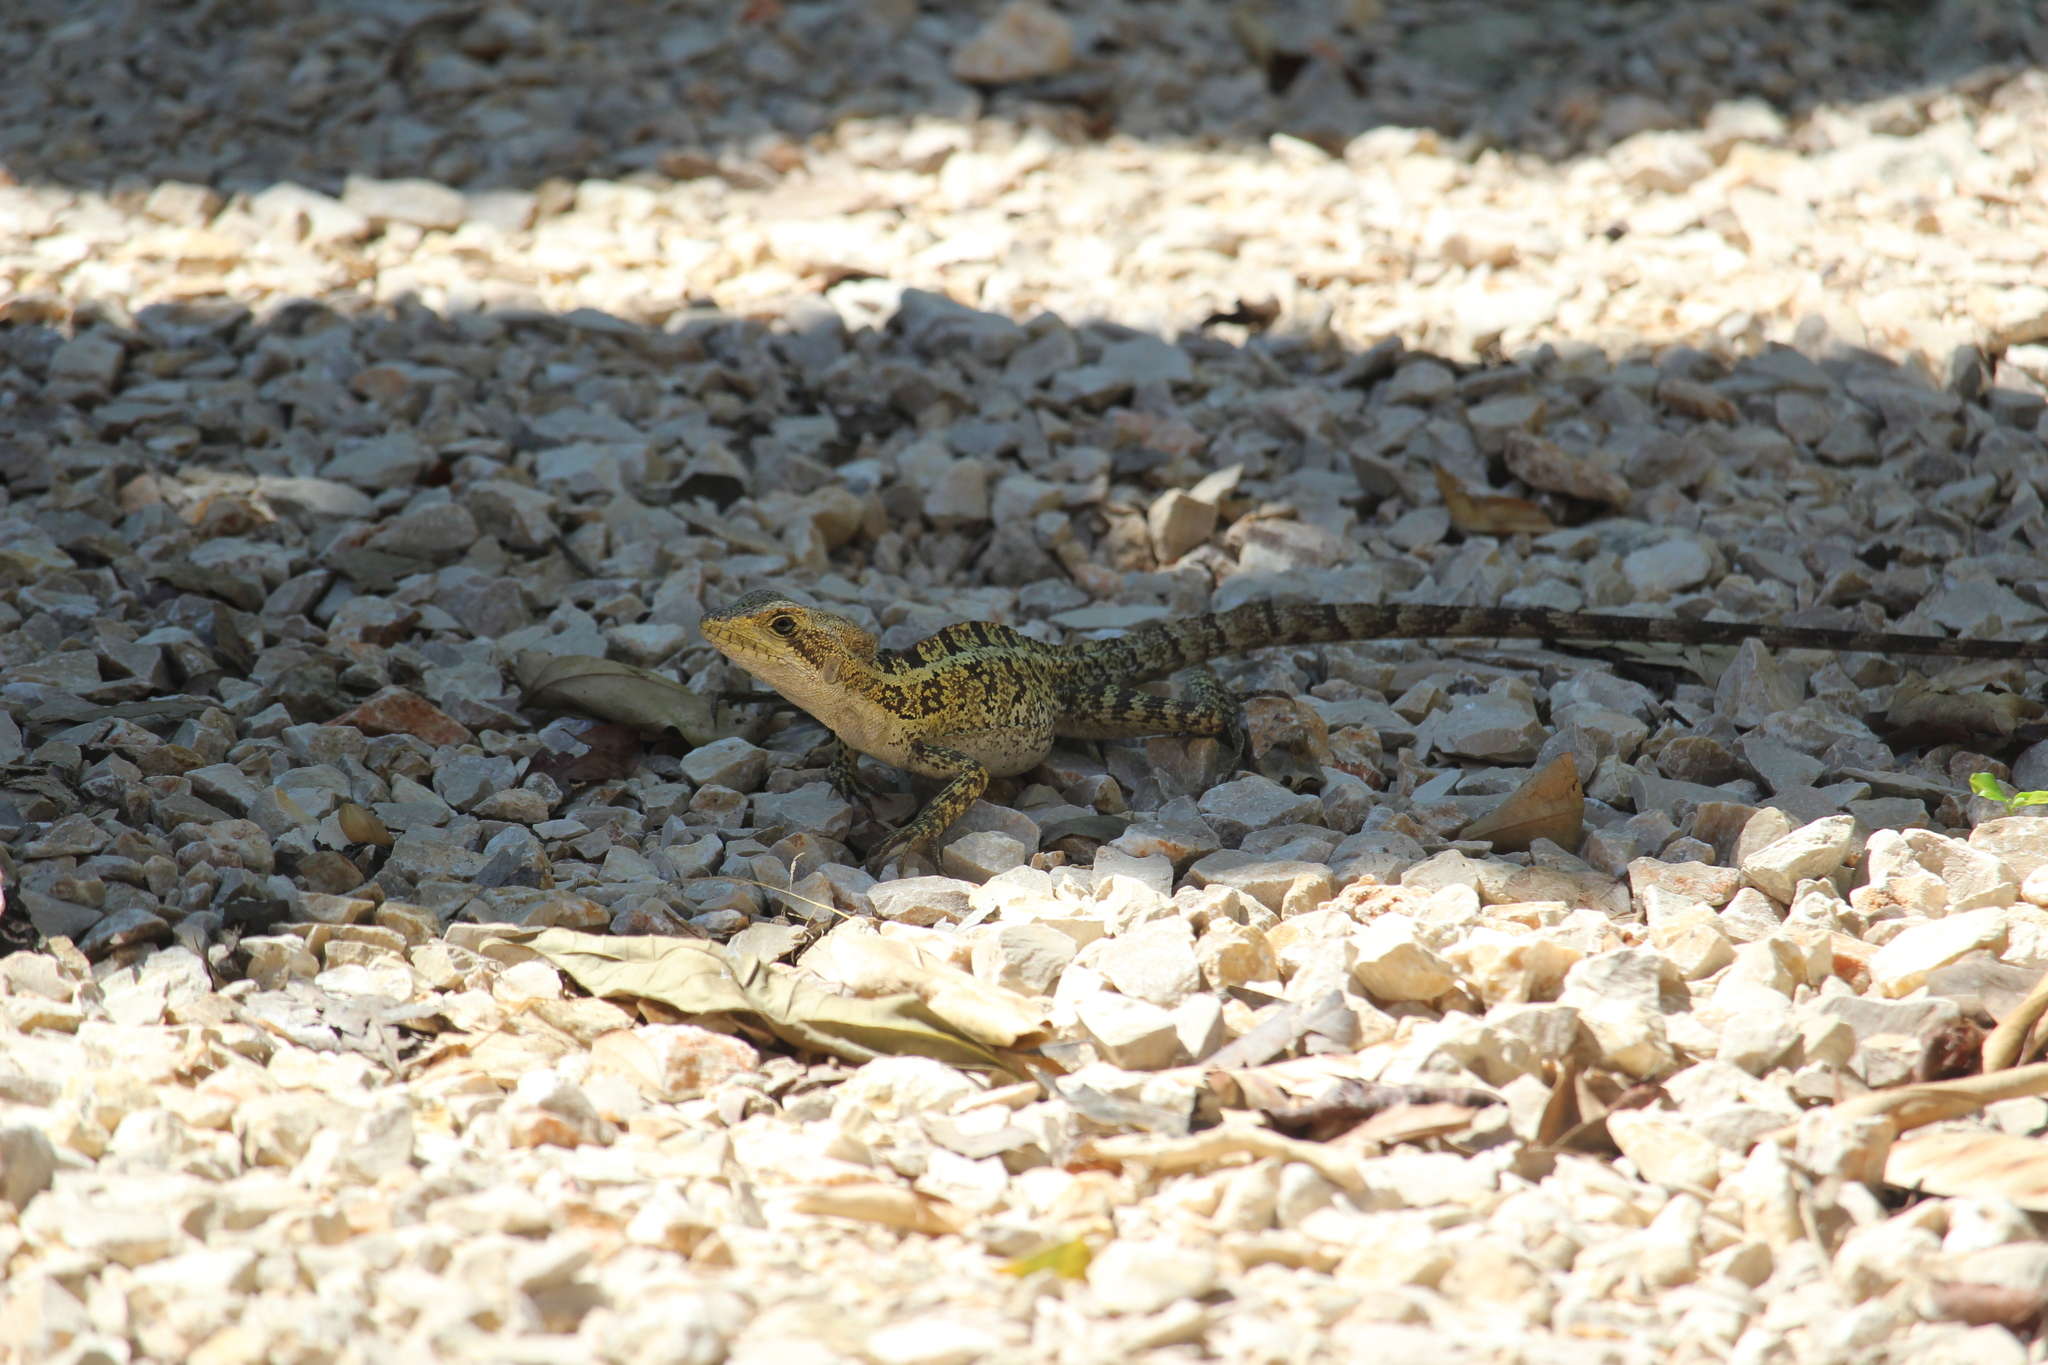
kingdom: Animalia
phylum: Chordata
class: Squamata
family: Corytophanidae
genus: Basiliscus
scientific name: Basiliscus vittatus
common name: Brown basilisk
